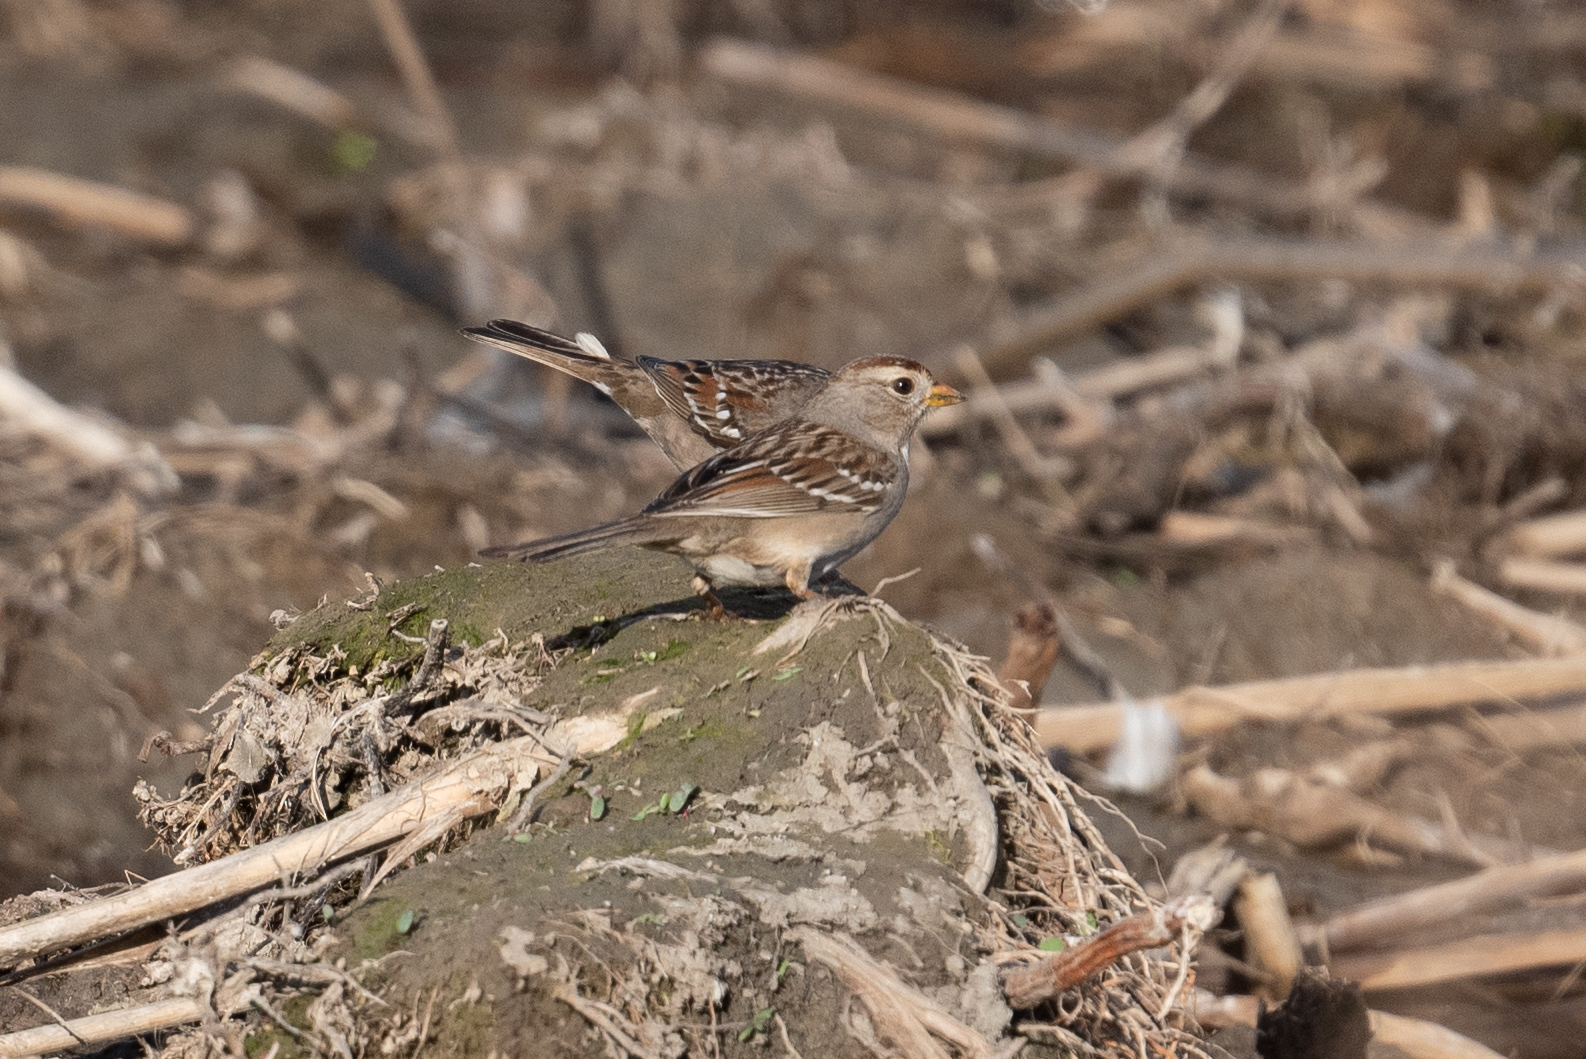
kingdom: Animalia
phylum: Chordata
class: Aves
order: Passeriformes
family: Passerellidae
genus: Zonotrichia
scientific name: Zonotrichia leucophrys
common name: White-crowned sparrow
